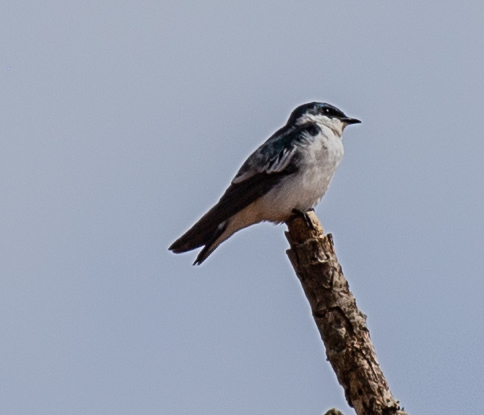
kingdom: Animalia
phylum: Chordata
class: Aves
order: Passeriformes
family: Hirundinidae
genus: Tachycineta
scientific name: Tachycineta albiventer
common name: White-winged swallow
